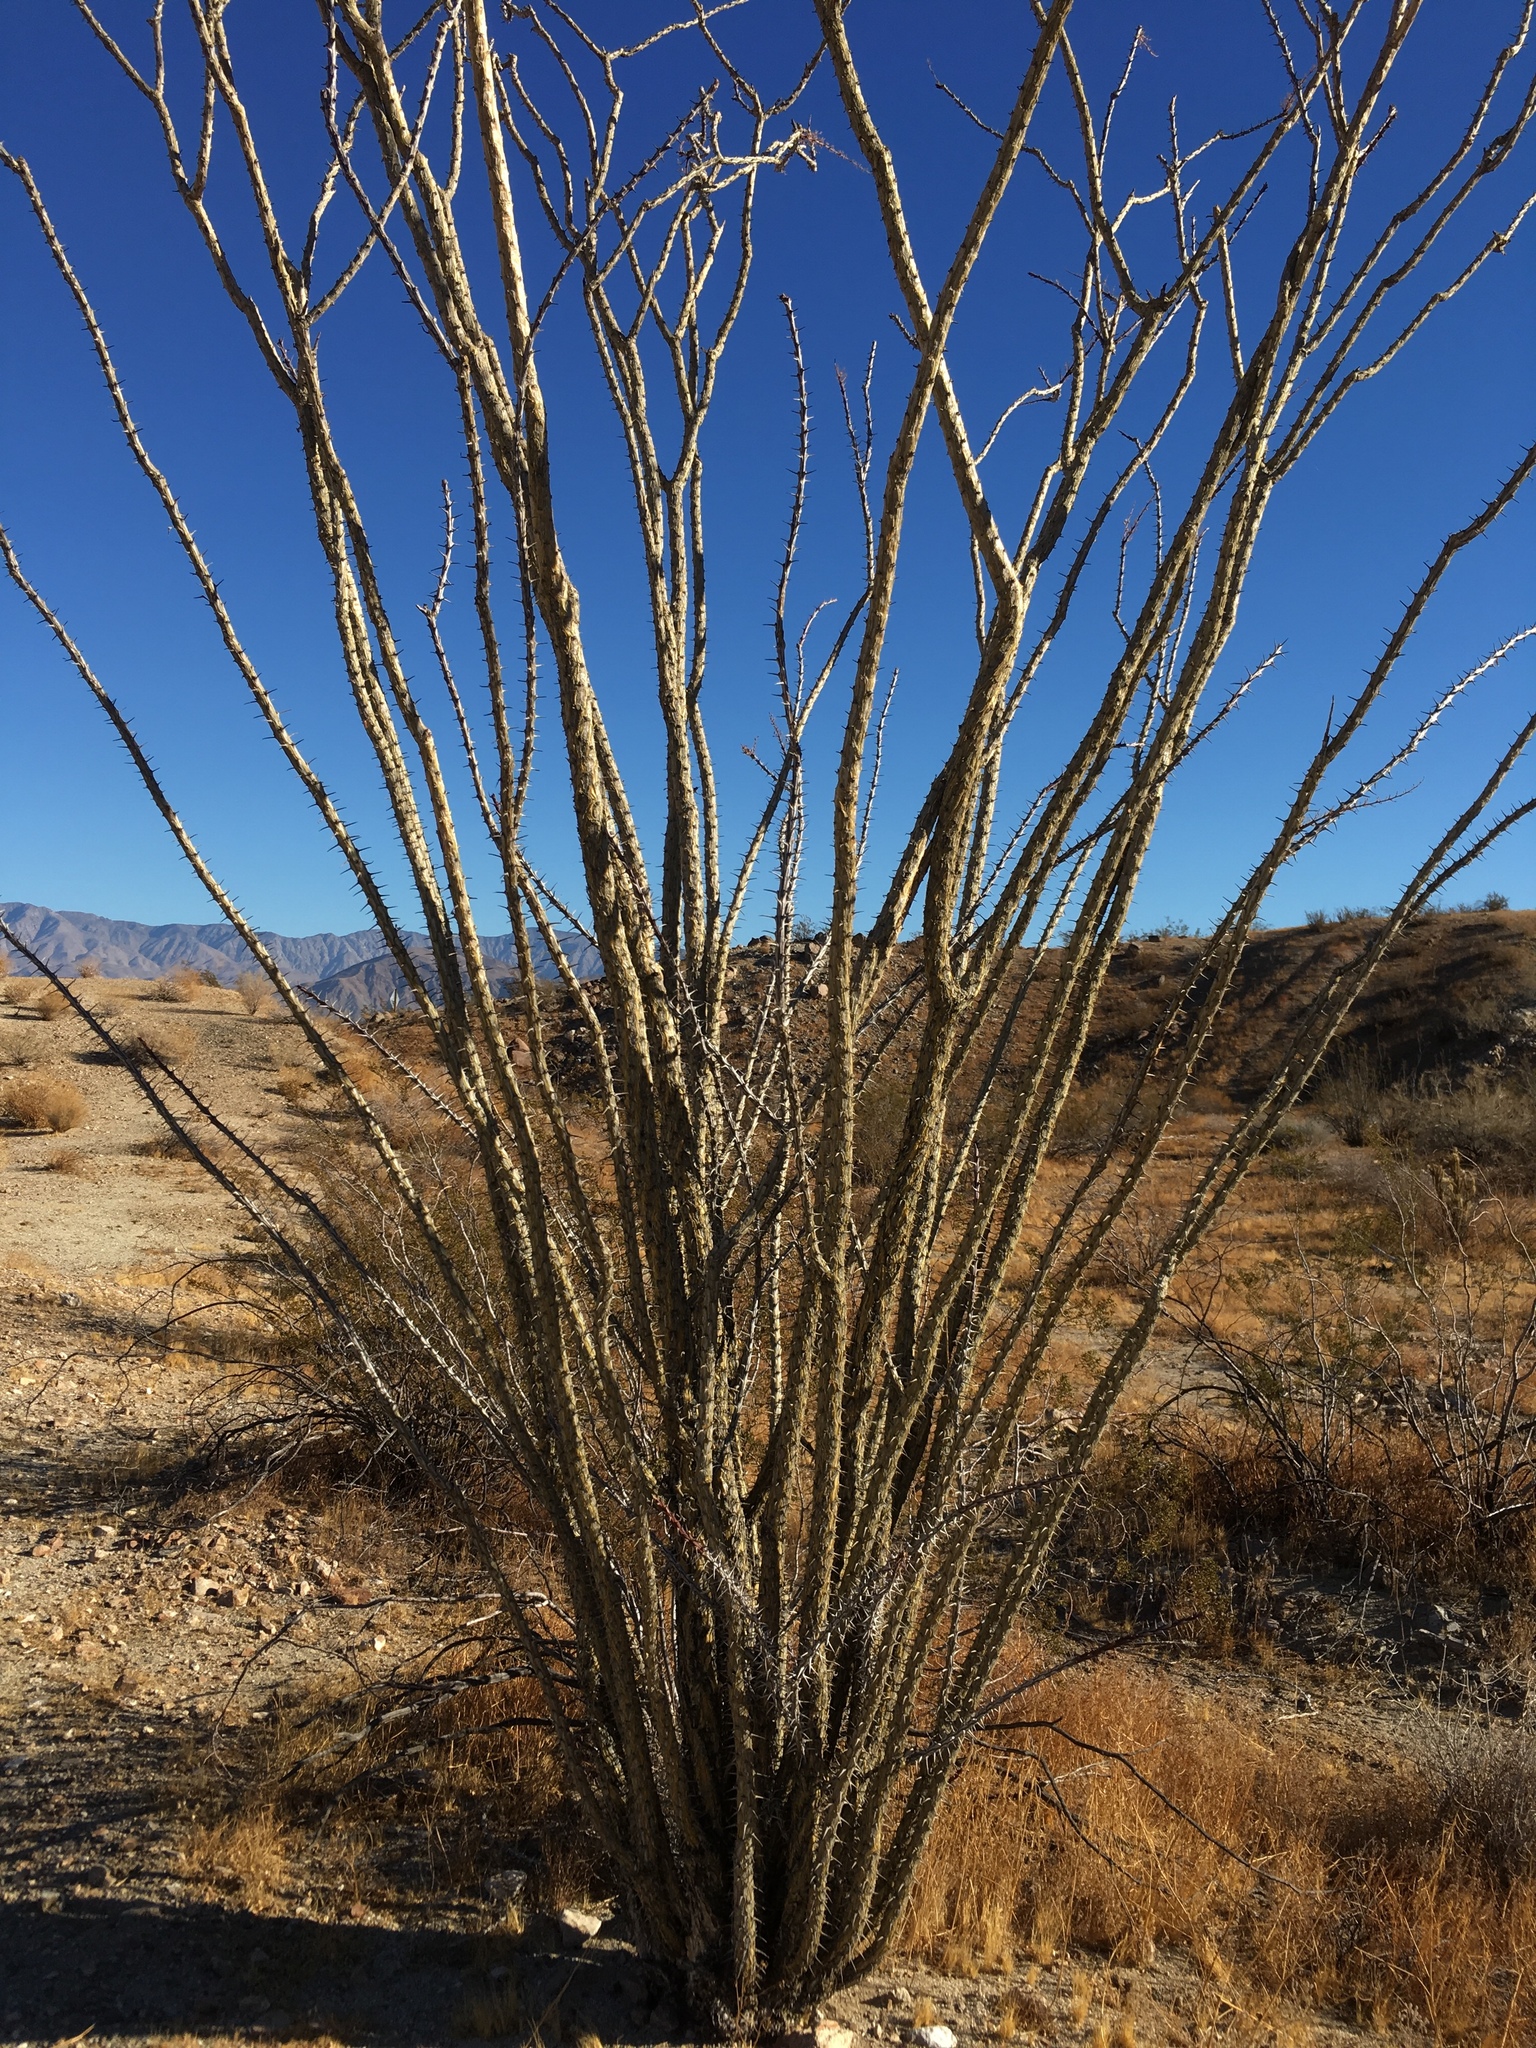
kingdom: Plantae
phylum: Tracheophyta
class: Magnoliopsida
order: Ericales
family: Fouquieriaceae
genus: Fouquieria
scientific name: Fouquieria splendens
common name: Vine-cactus
